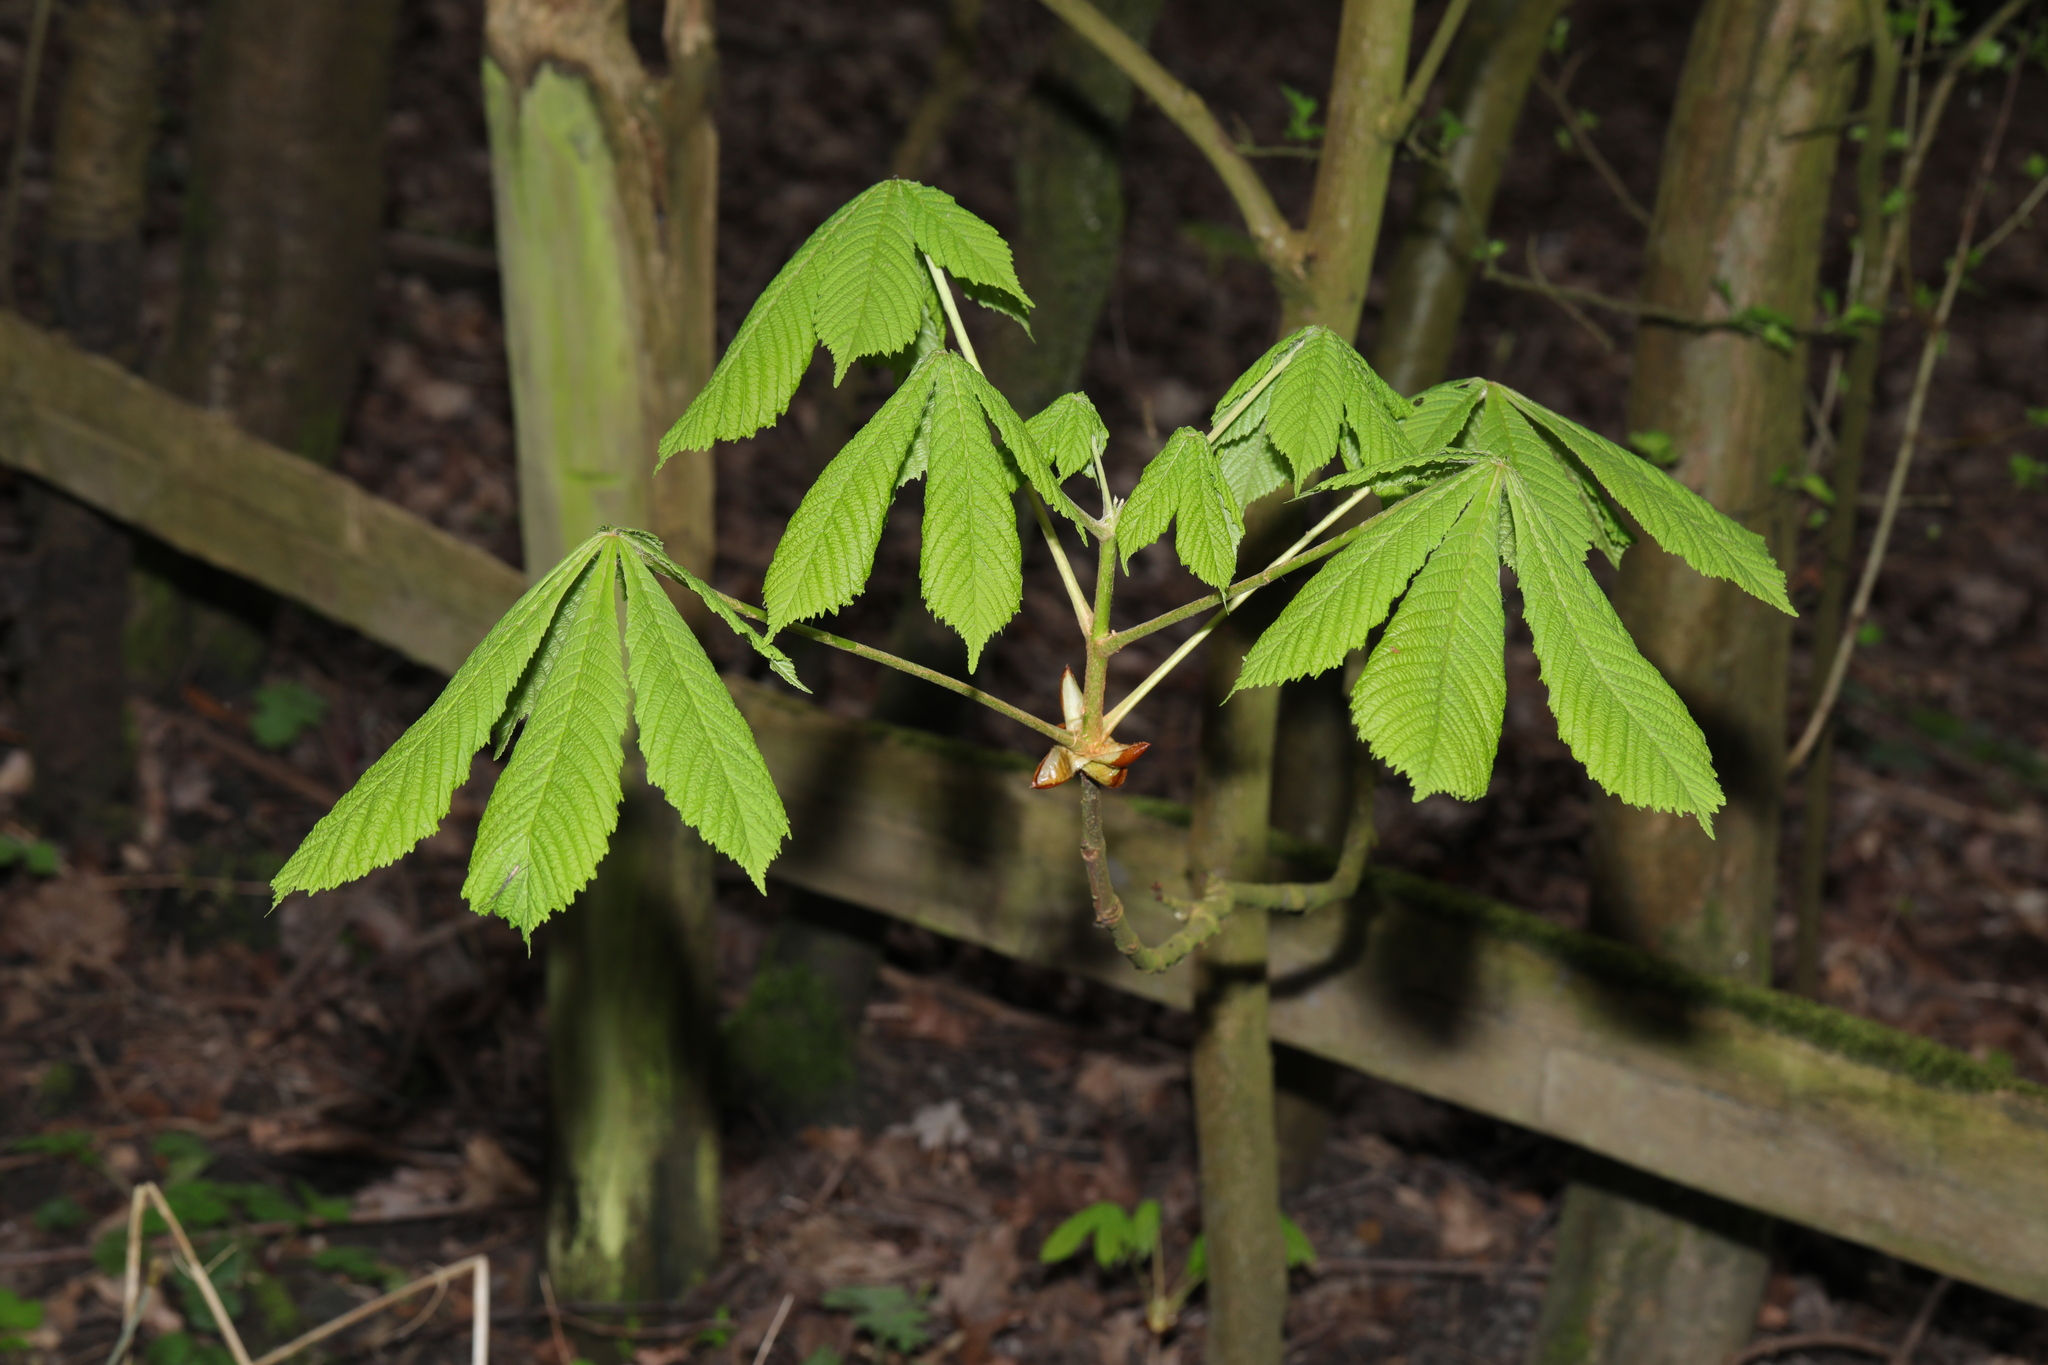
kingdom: Plantae
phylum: Tracheophyta
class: Magnoliopsida
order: Sapindales
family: Sapindaceae
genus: Aesculus
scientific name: Aesculus hippocastanum
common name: Horse-chestnut
